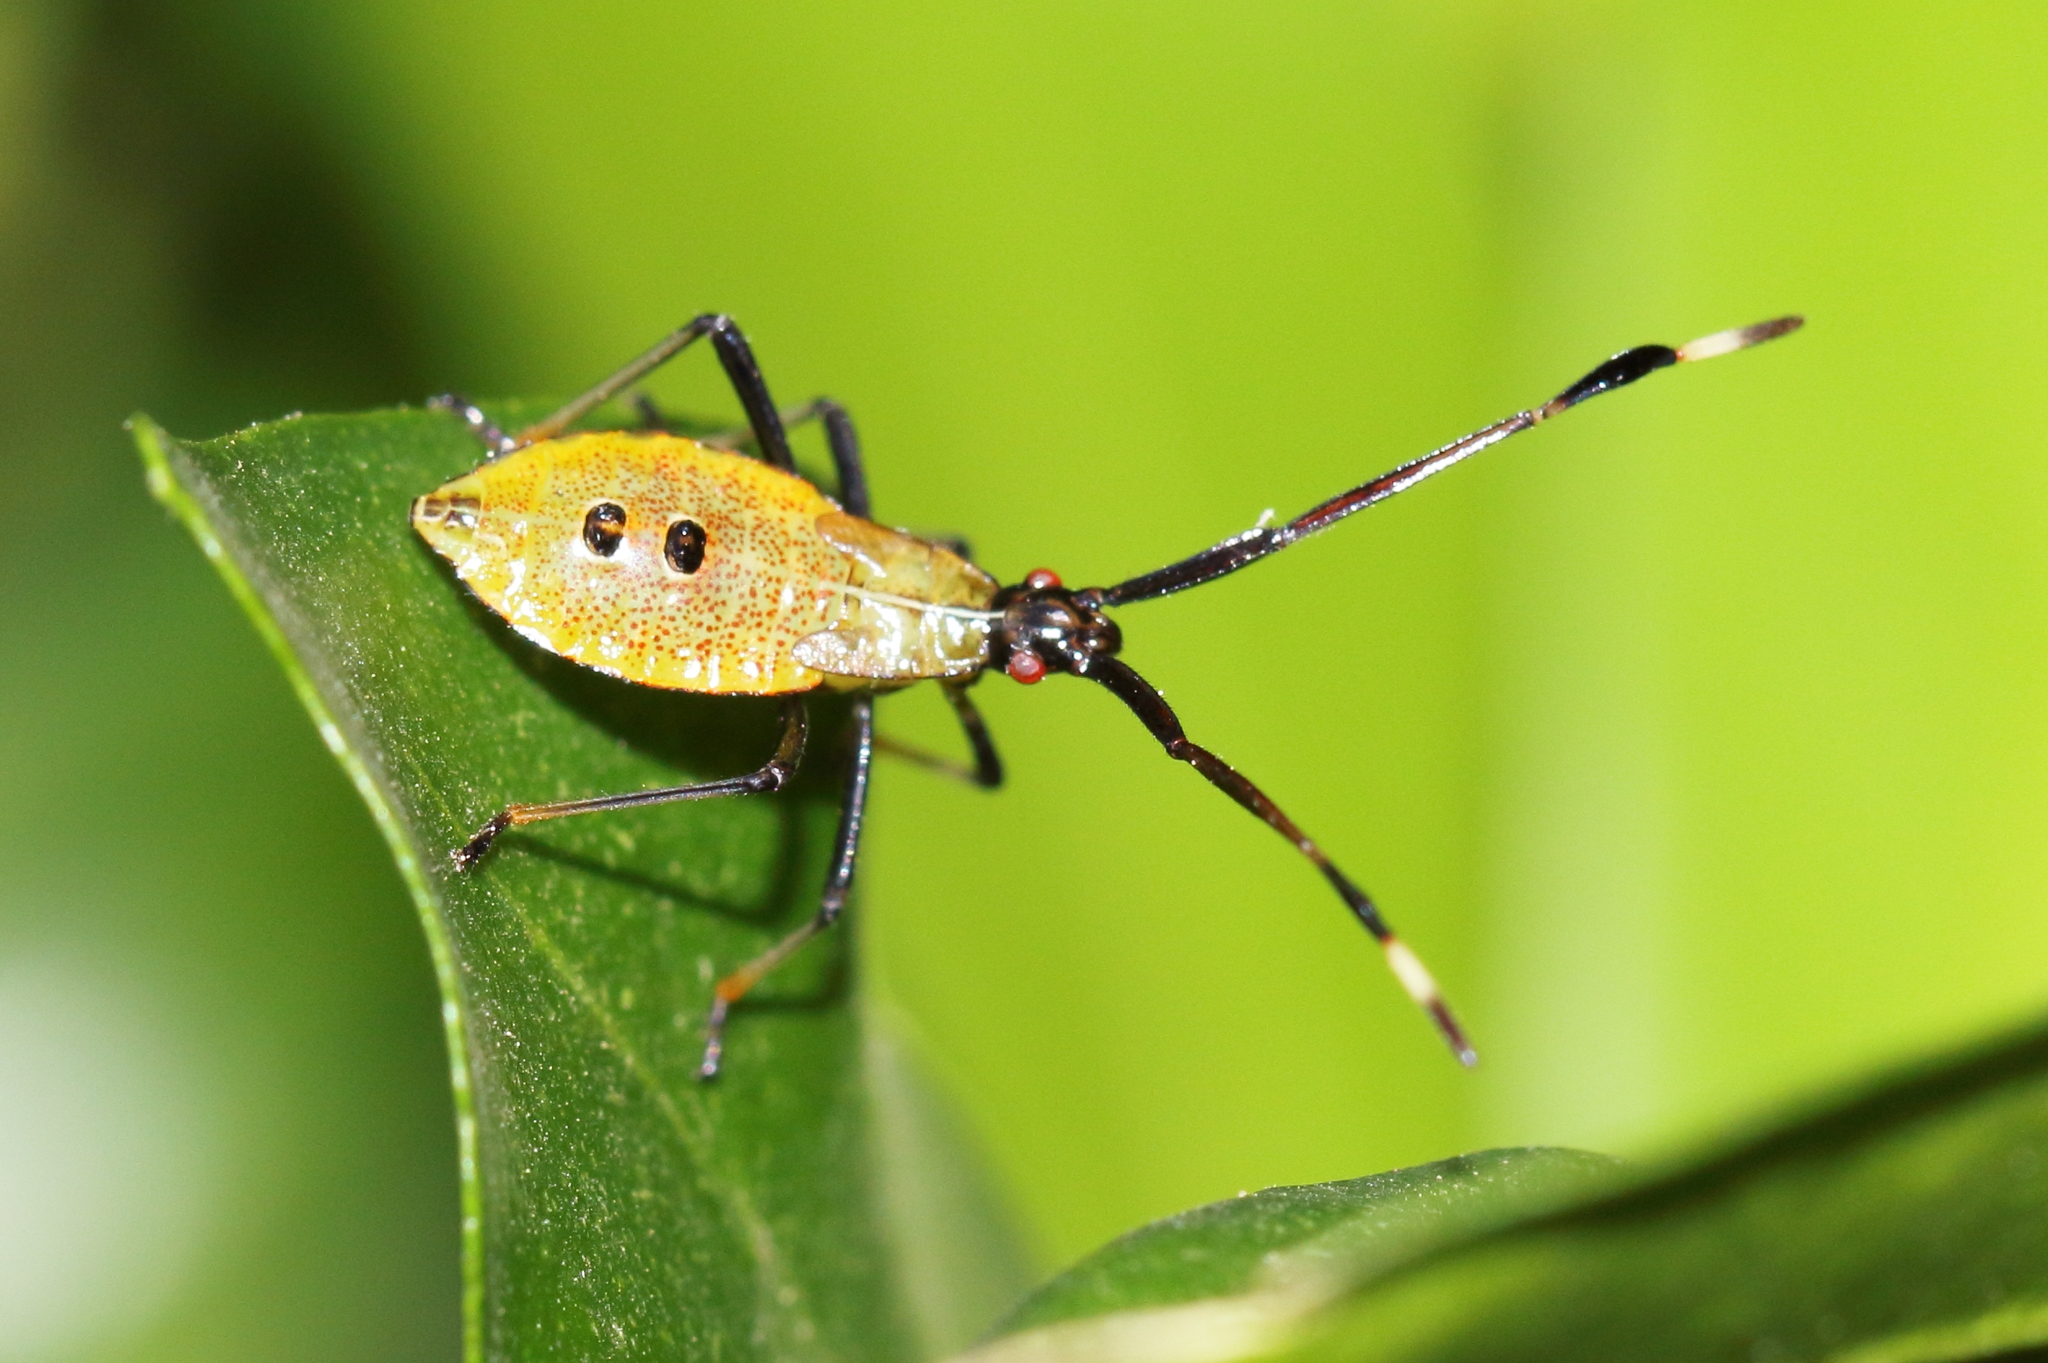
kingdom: Animalia
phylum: Arthropoda
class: Insecta
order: Hemiptera
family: Coreidae
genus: Amblypelta
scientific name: Amblypelta nitida
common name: Fruitspotting bug
